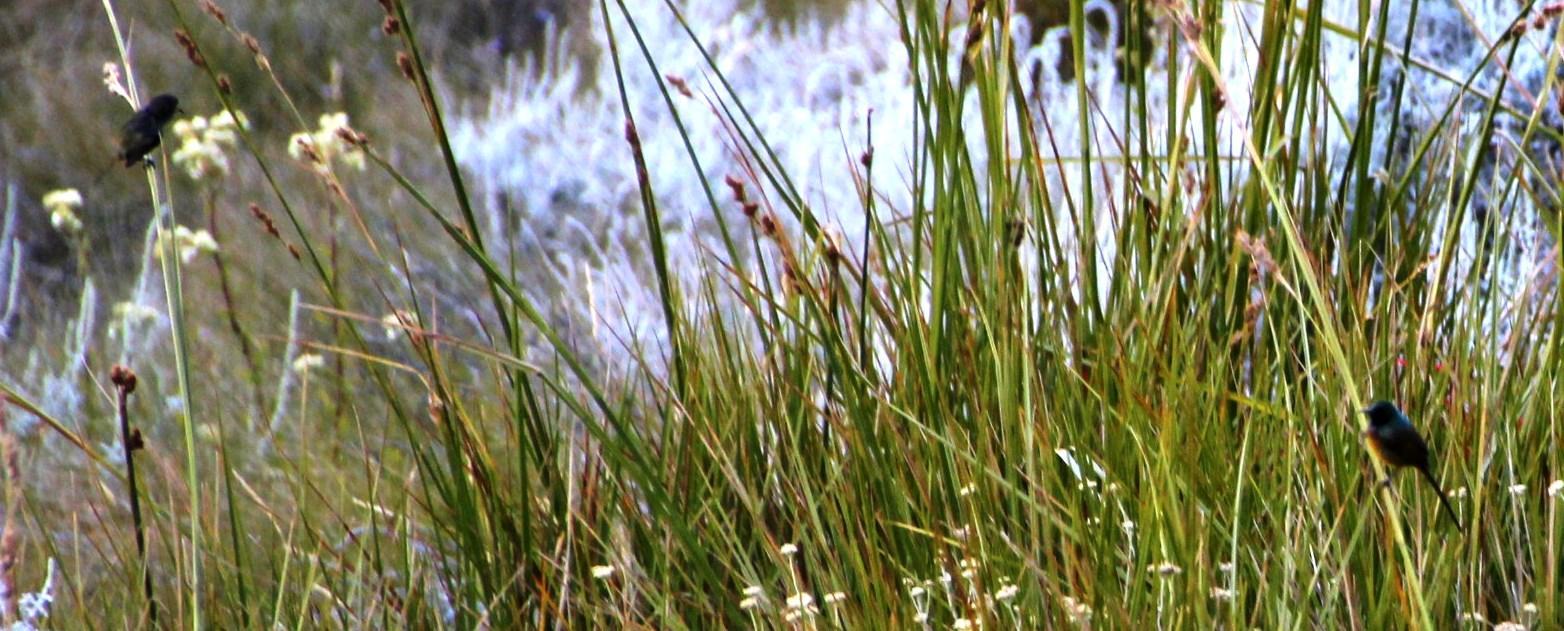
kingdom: Animalia
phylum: Chordata
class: Aves
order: Passeriformes
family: Nectariniidae
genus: Anthobaphes
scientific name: Anthobaphes violacea
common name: Orange-breasted sunbird
